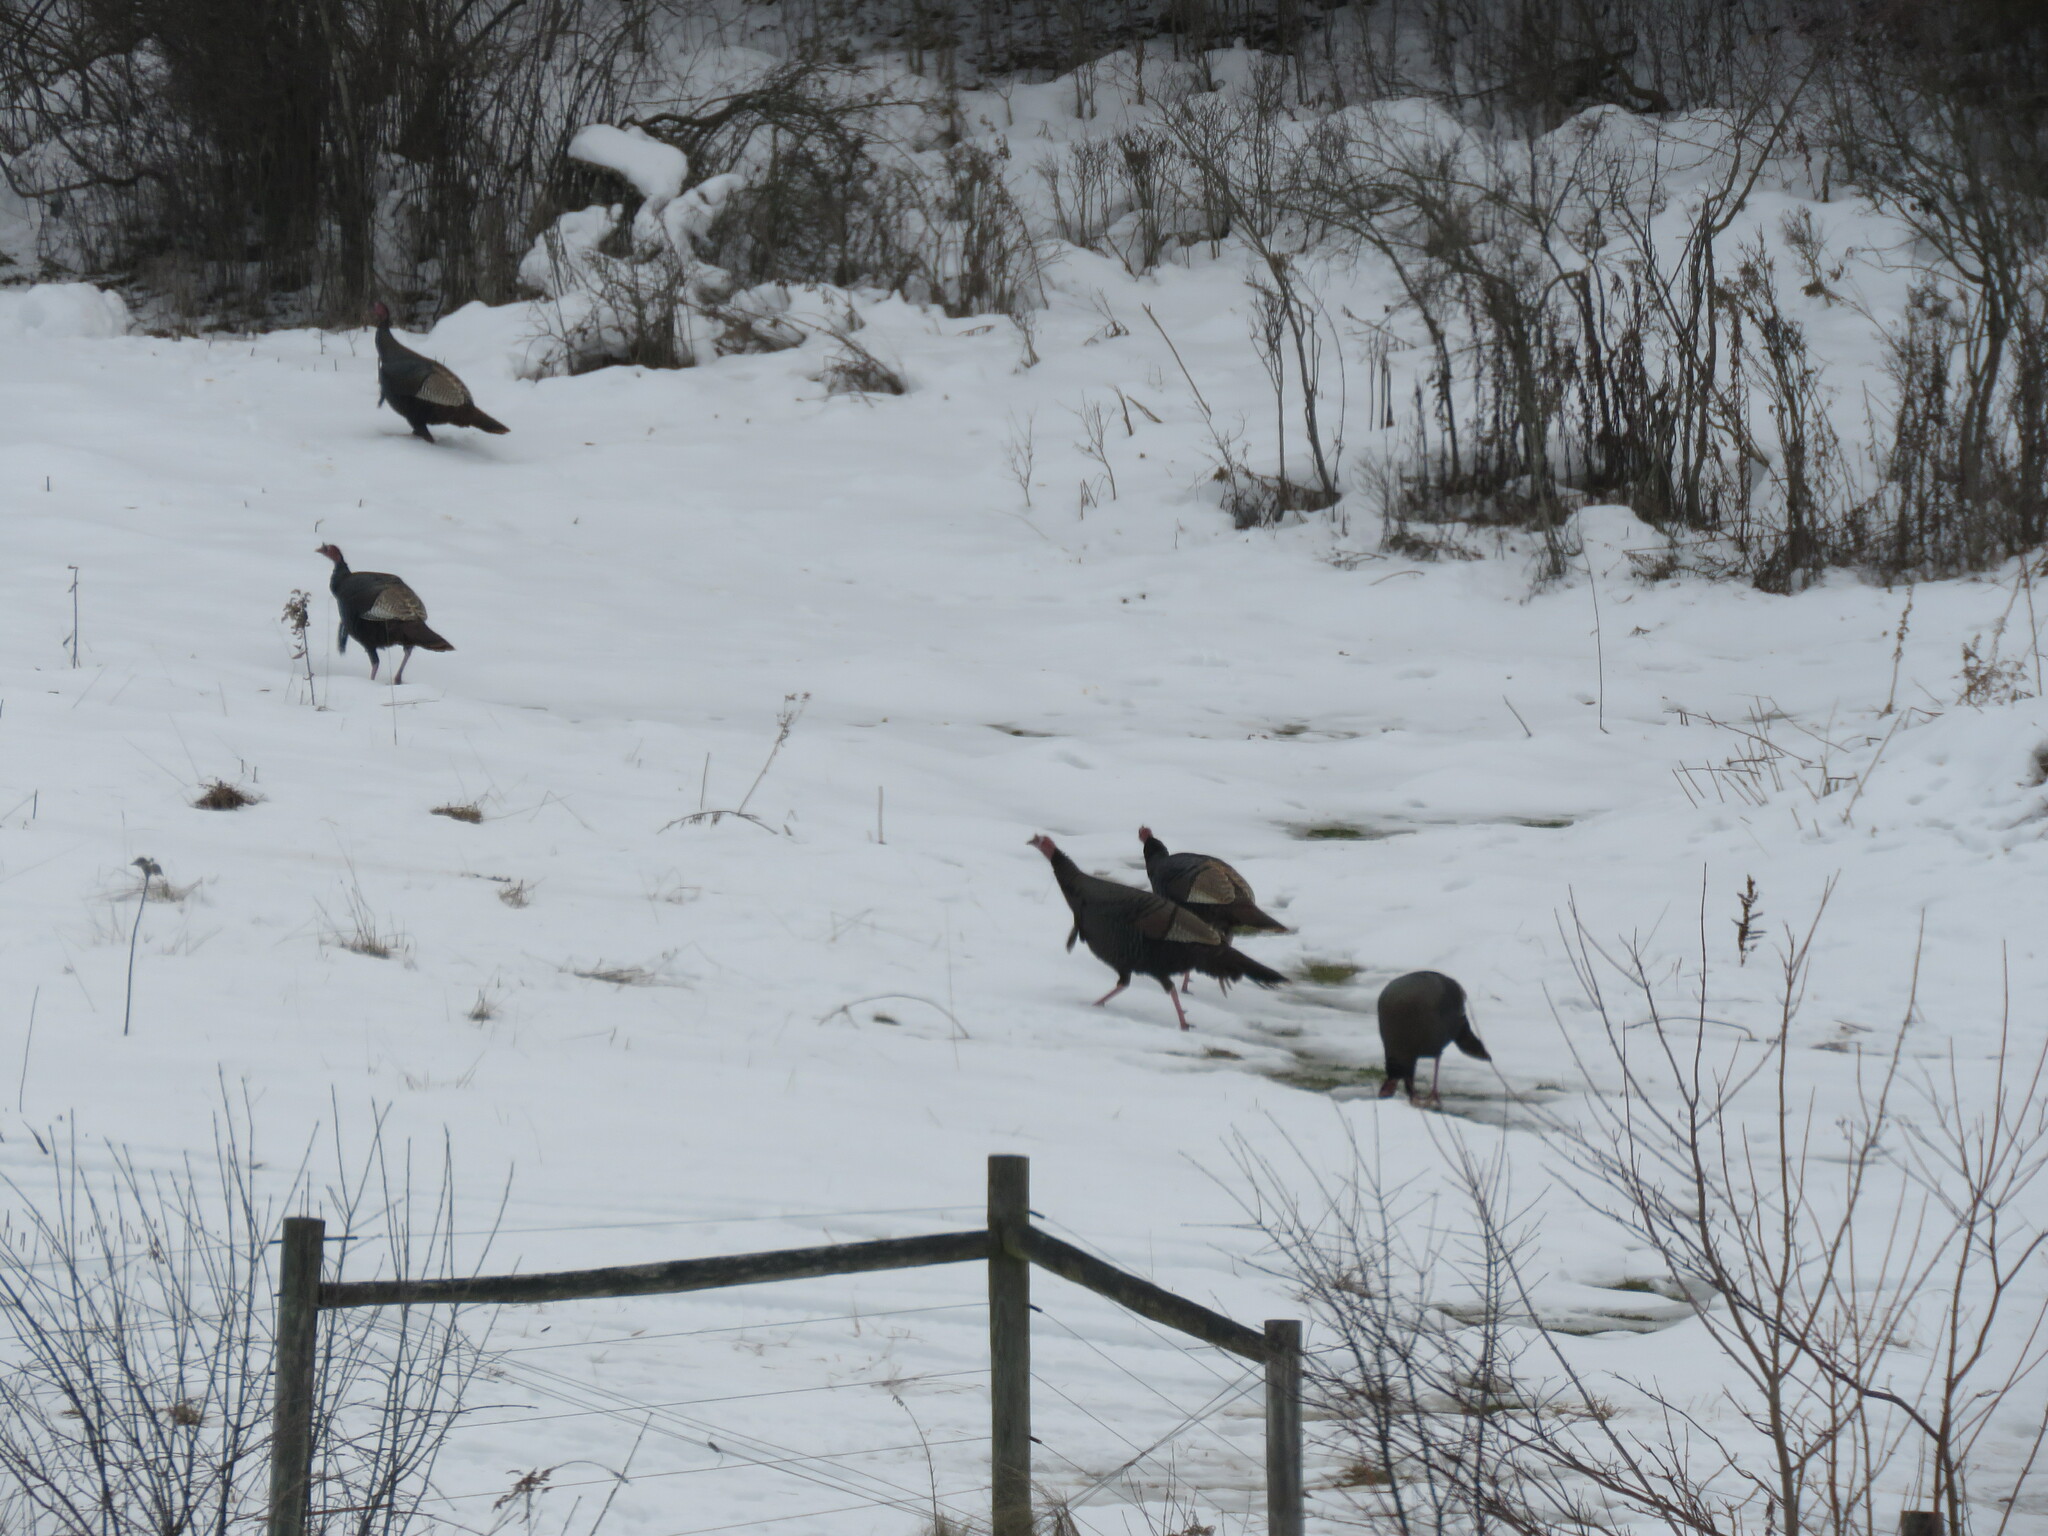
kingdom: Animalia
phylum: Chordata
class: Aves
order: Galliformes
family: Phasianidae
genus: Meleagris
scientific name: Meleagris gallopavo
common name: Wild turkey
